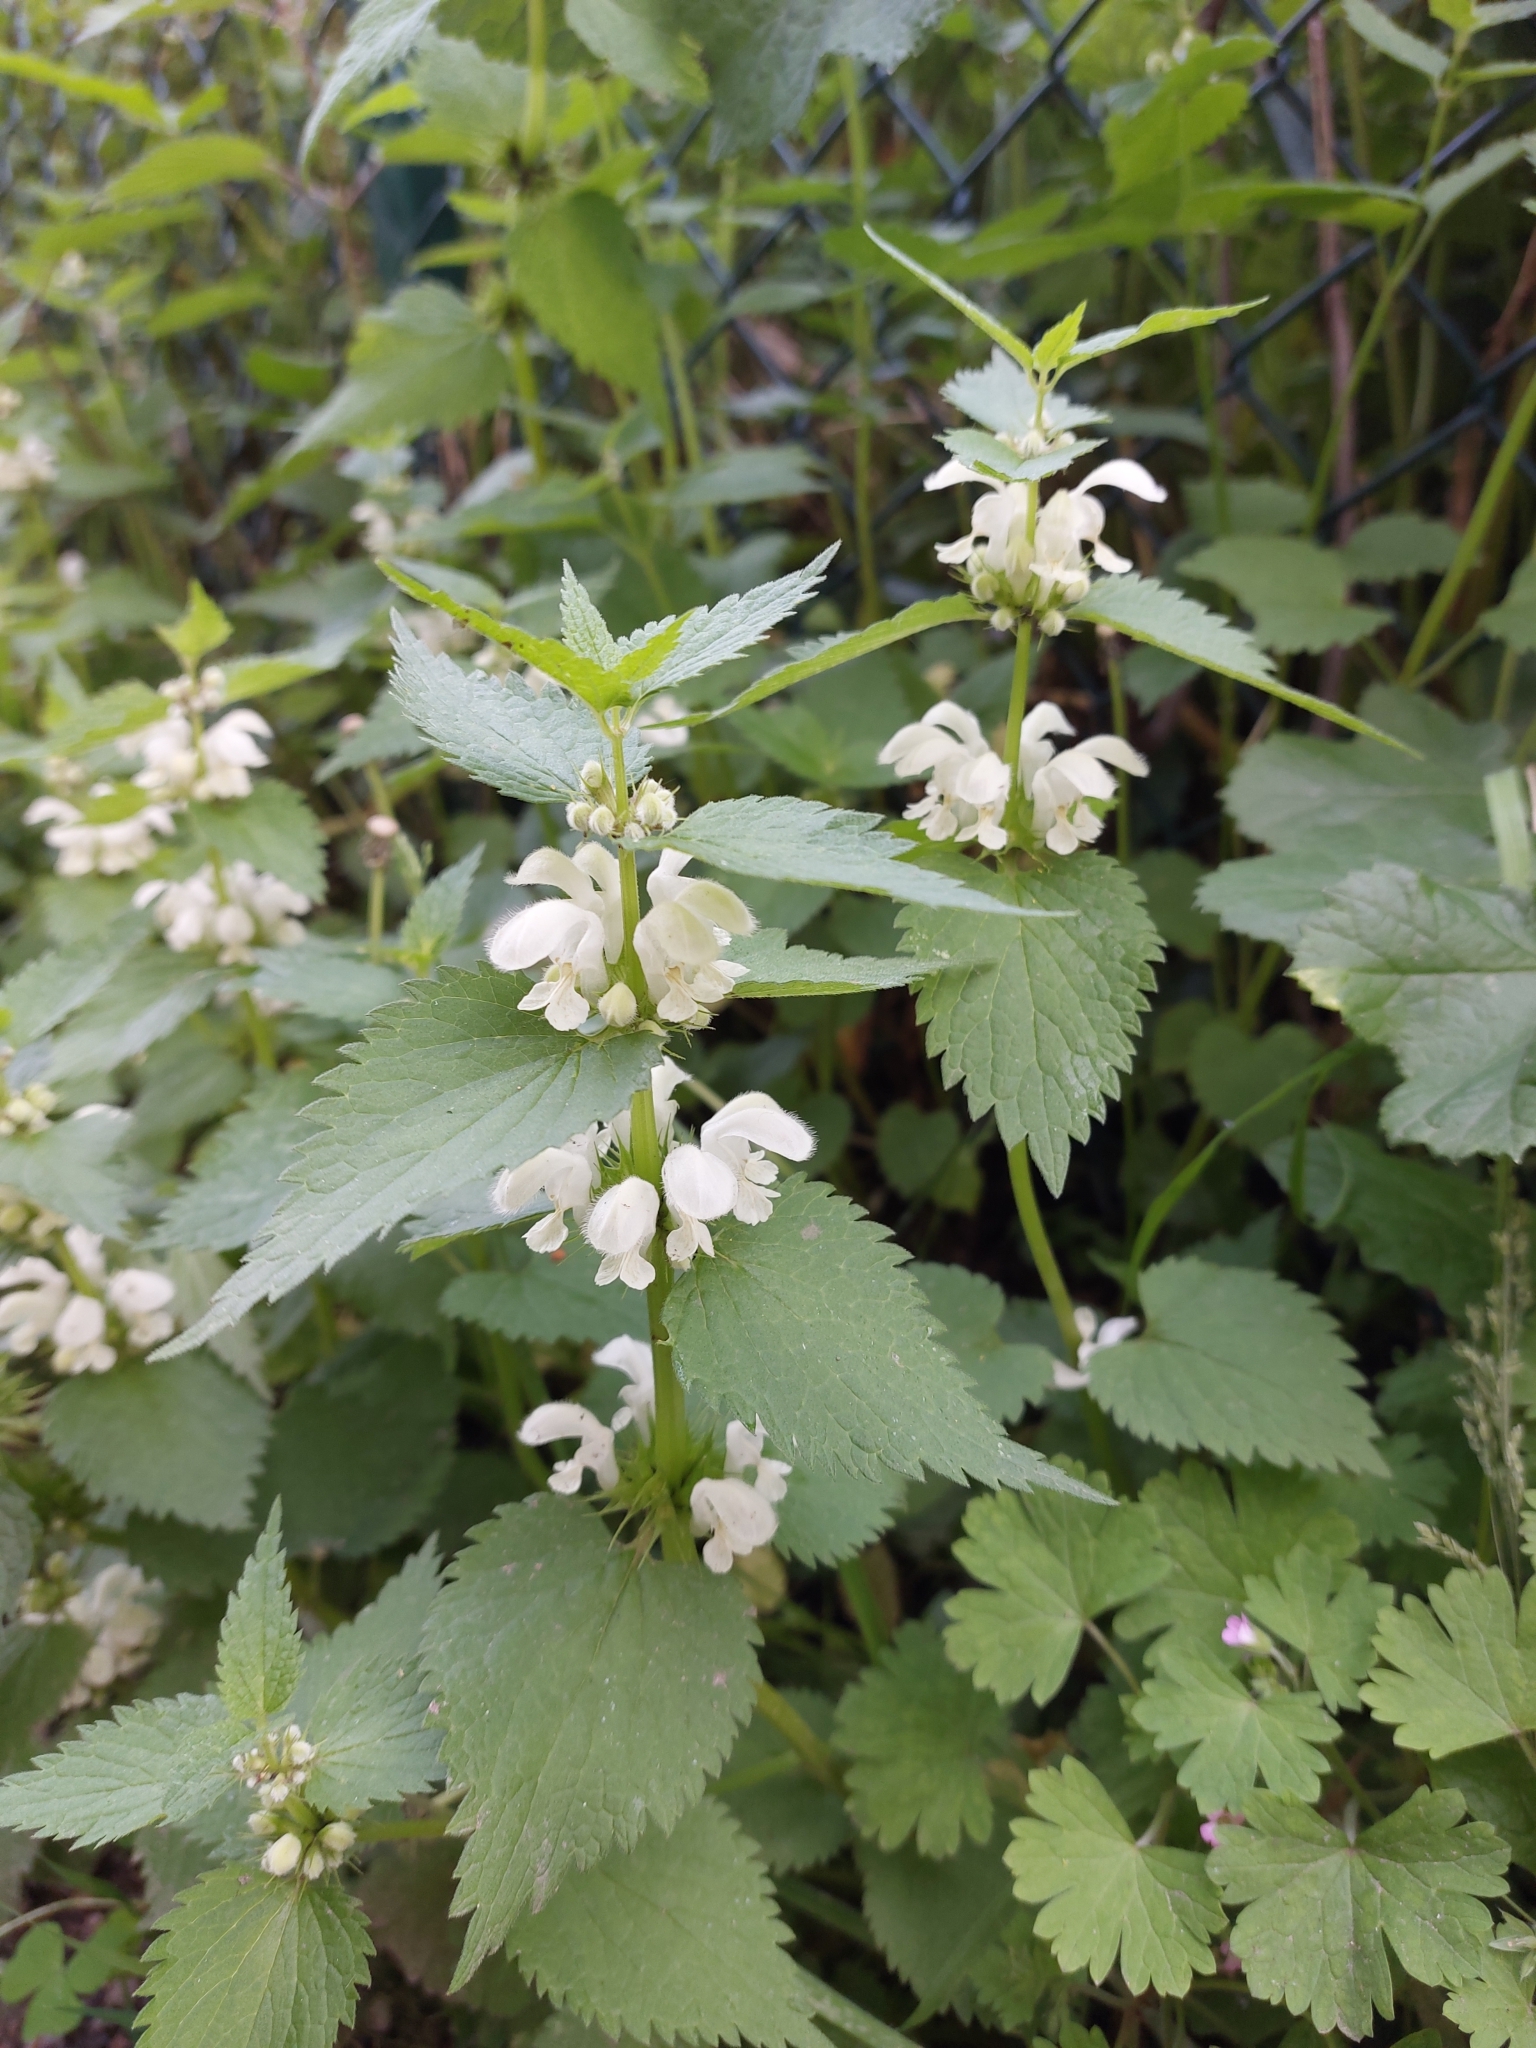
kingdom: Plantae
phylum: Tracheophyta
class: Magnoliopsida
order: Lamiales
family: Lamiaceae
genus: Lamium
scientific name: Lamium album
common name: White dead-nettle
